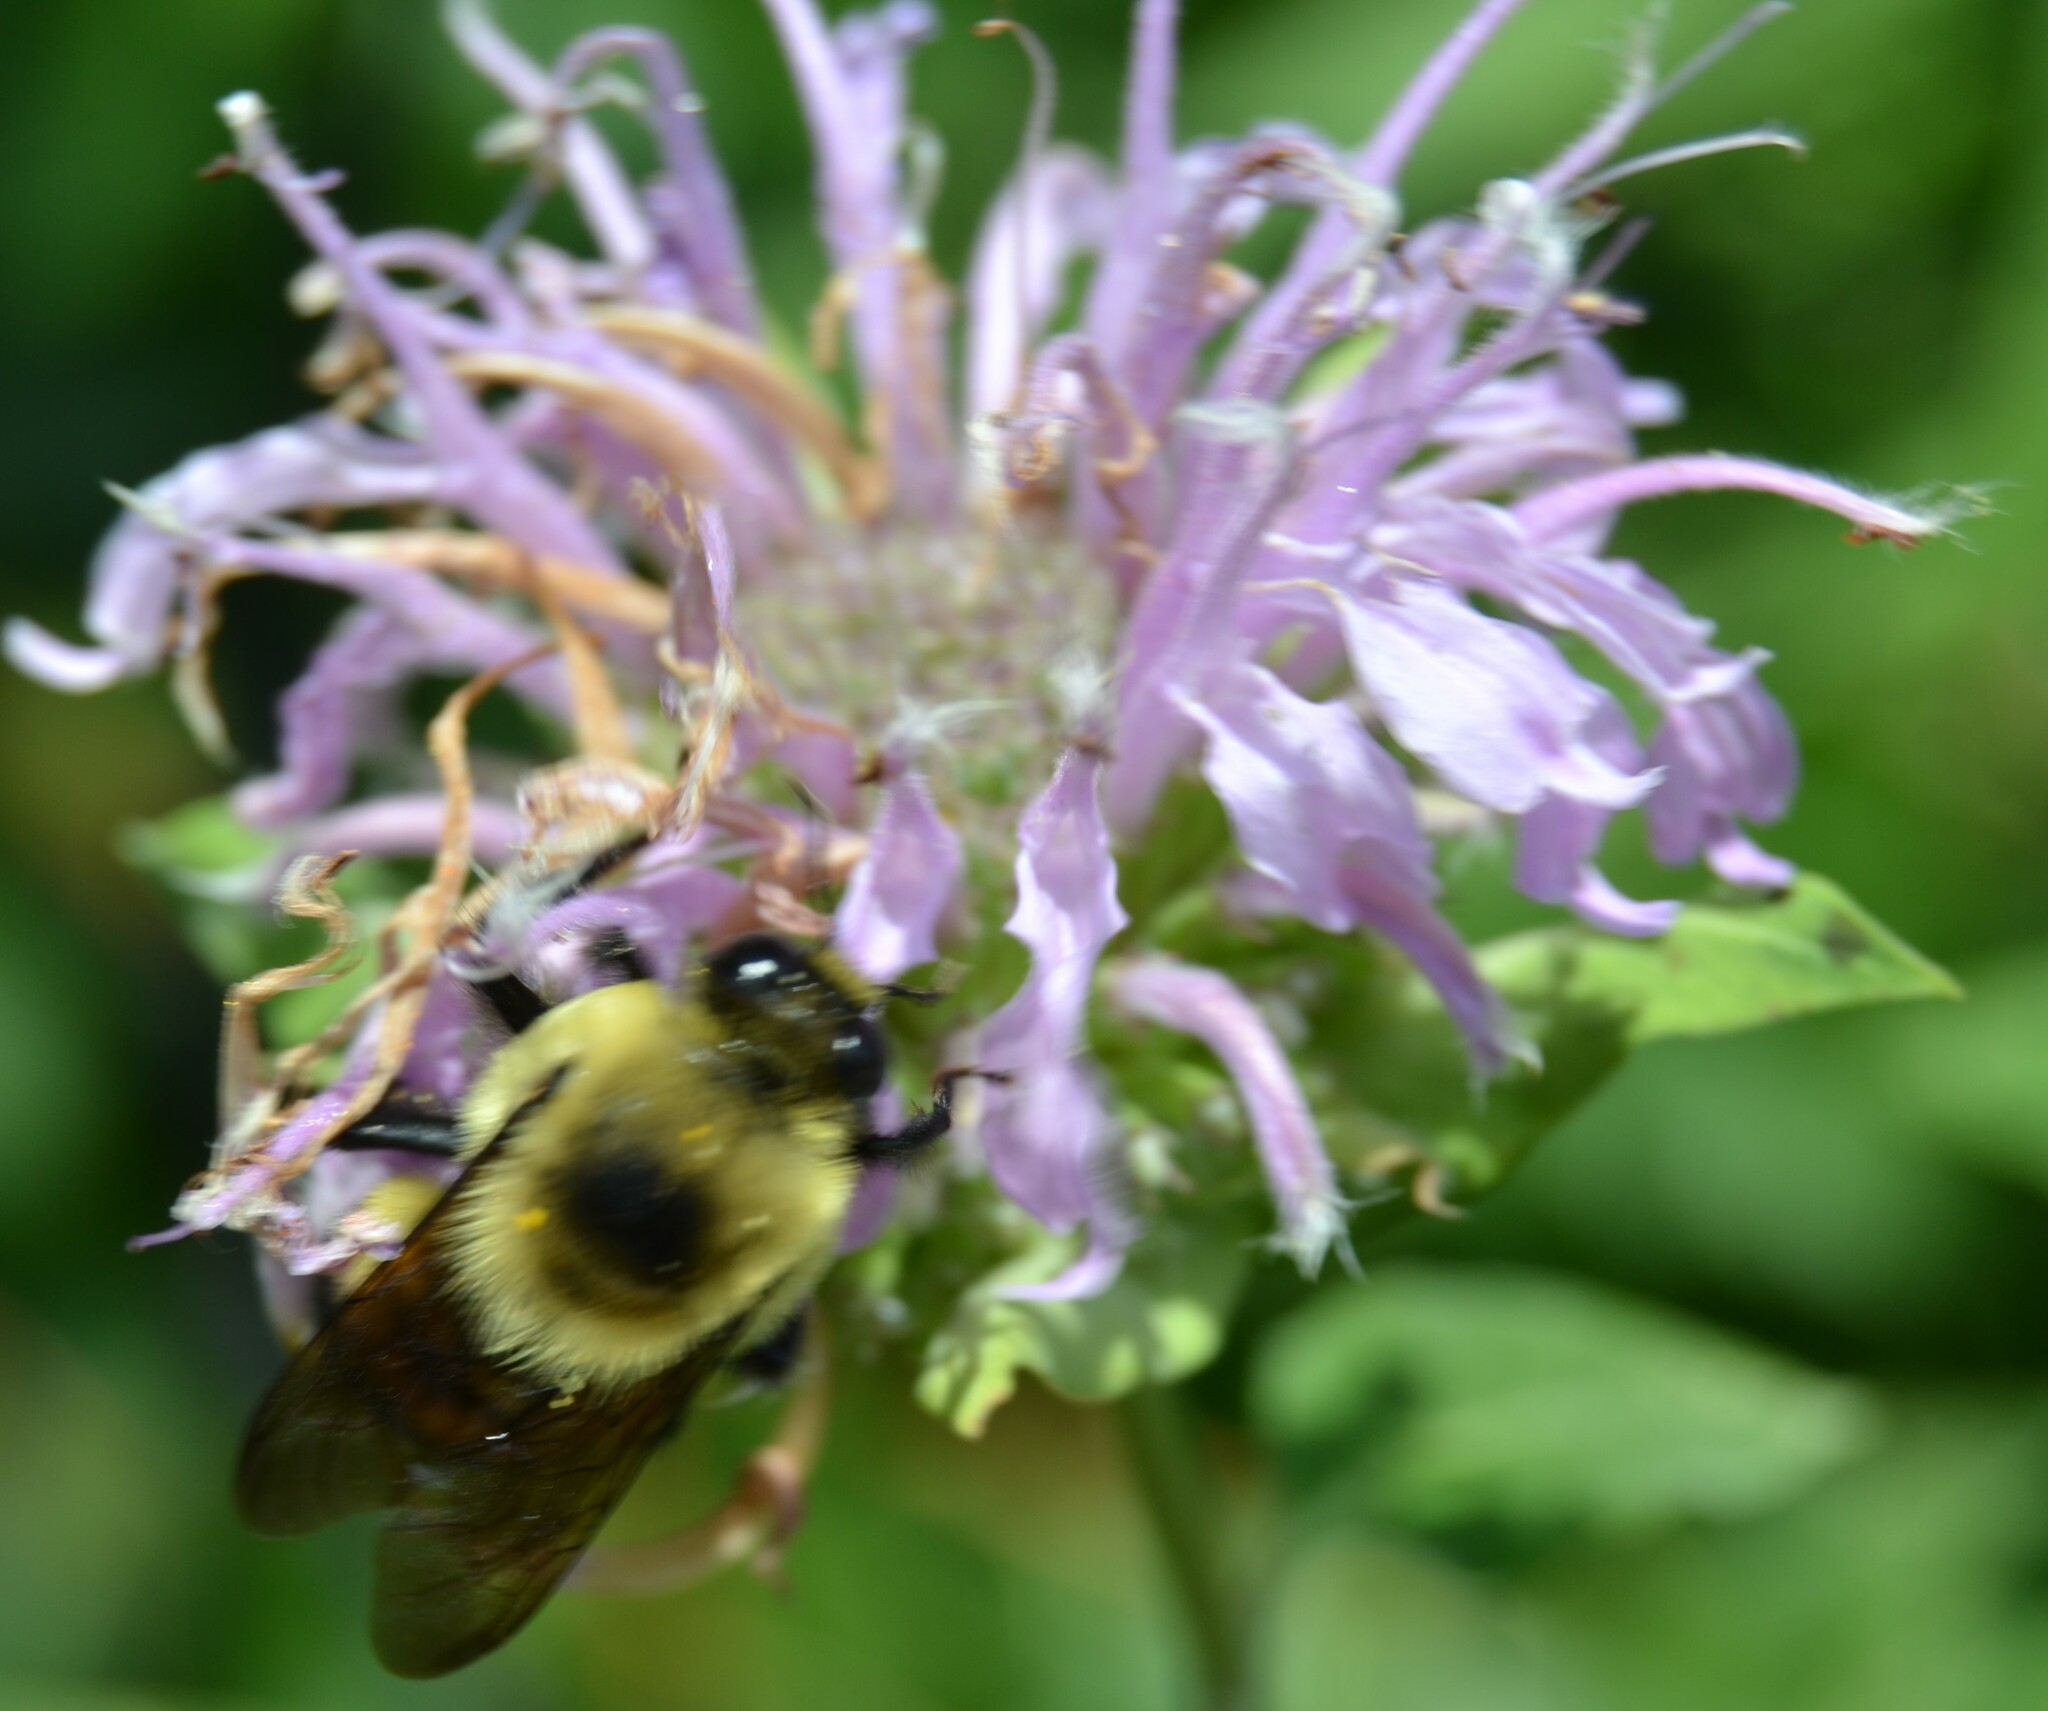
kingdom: Animalia
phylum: Arthropoda
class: Insecta
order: Hymenoptera
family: Apidae
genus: Bombus
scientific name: Bombus griseocollis
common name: Brown-belted bumble bee
